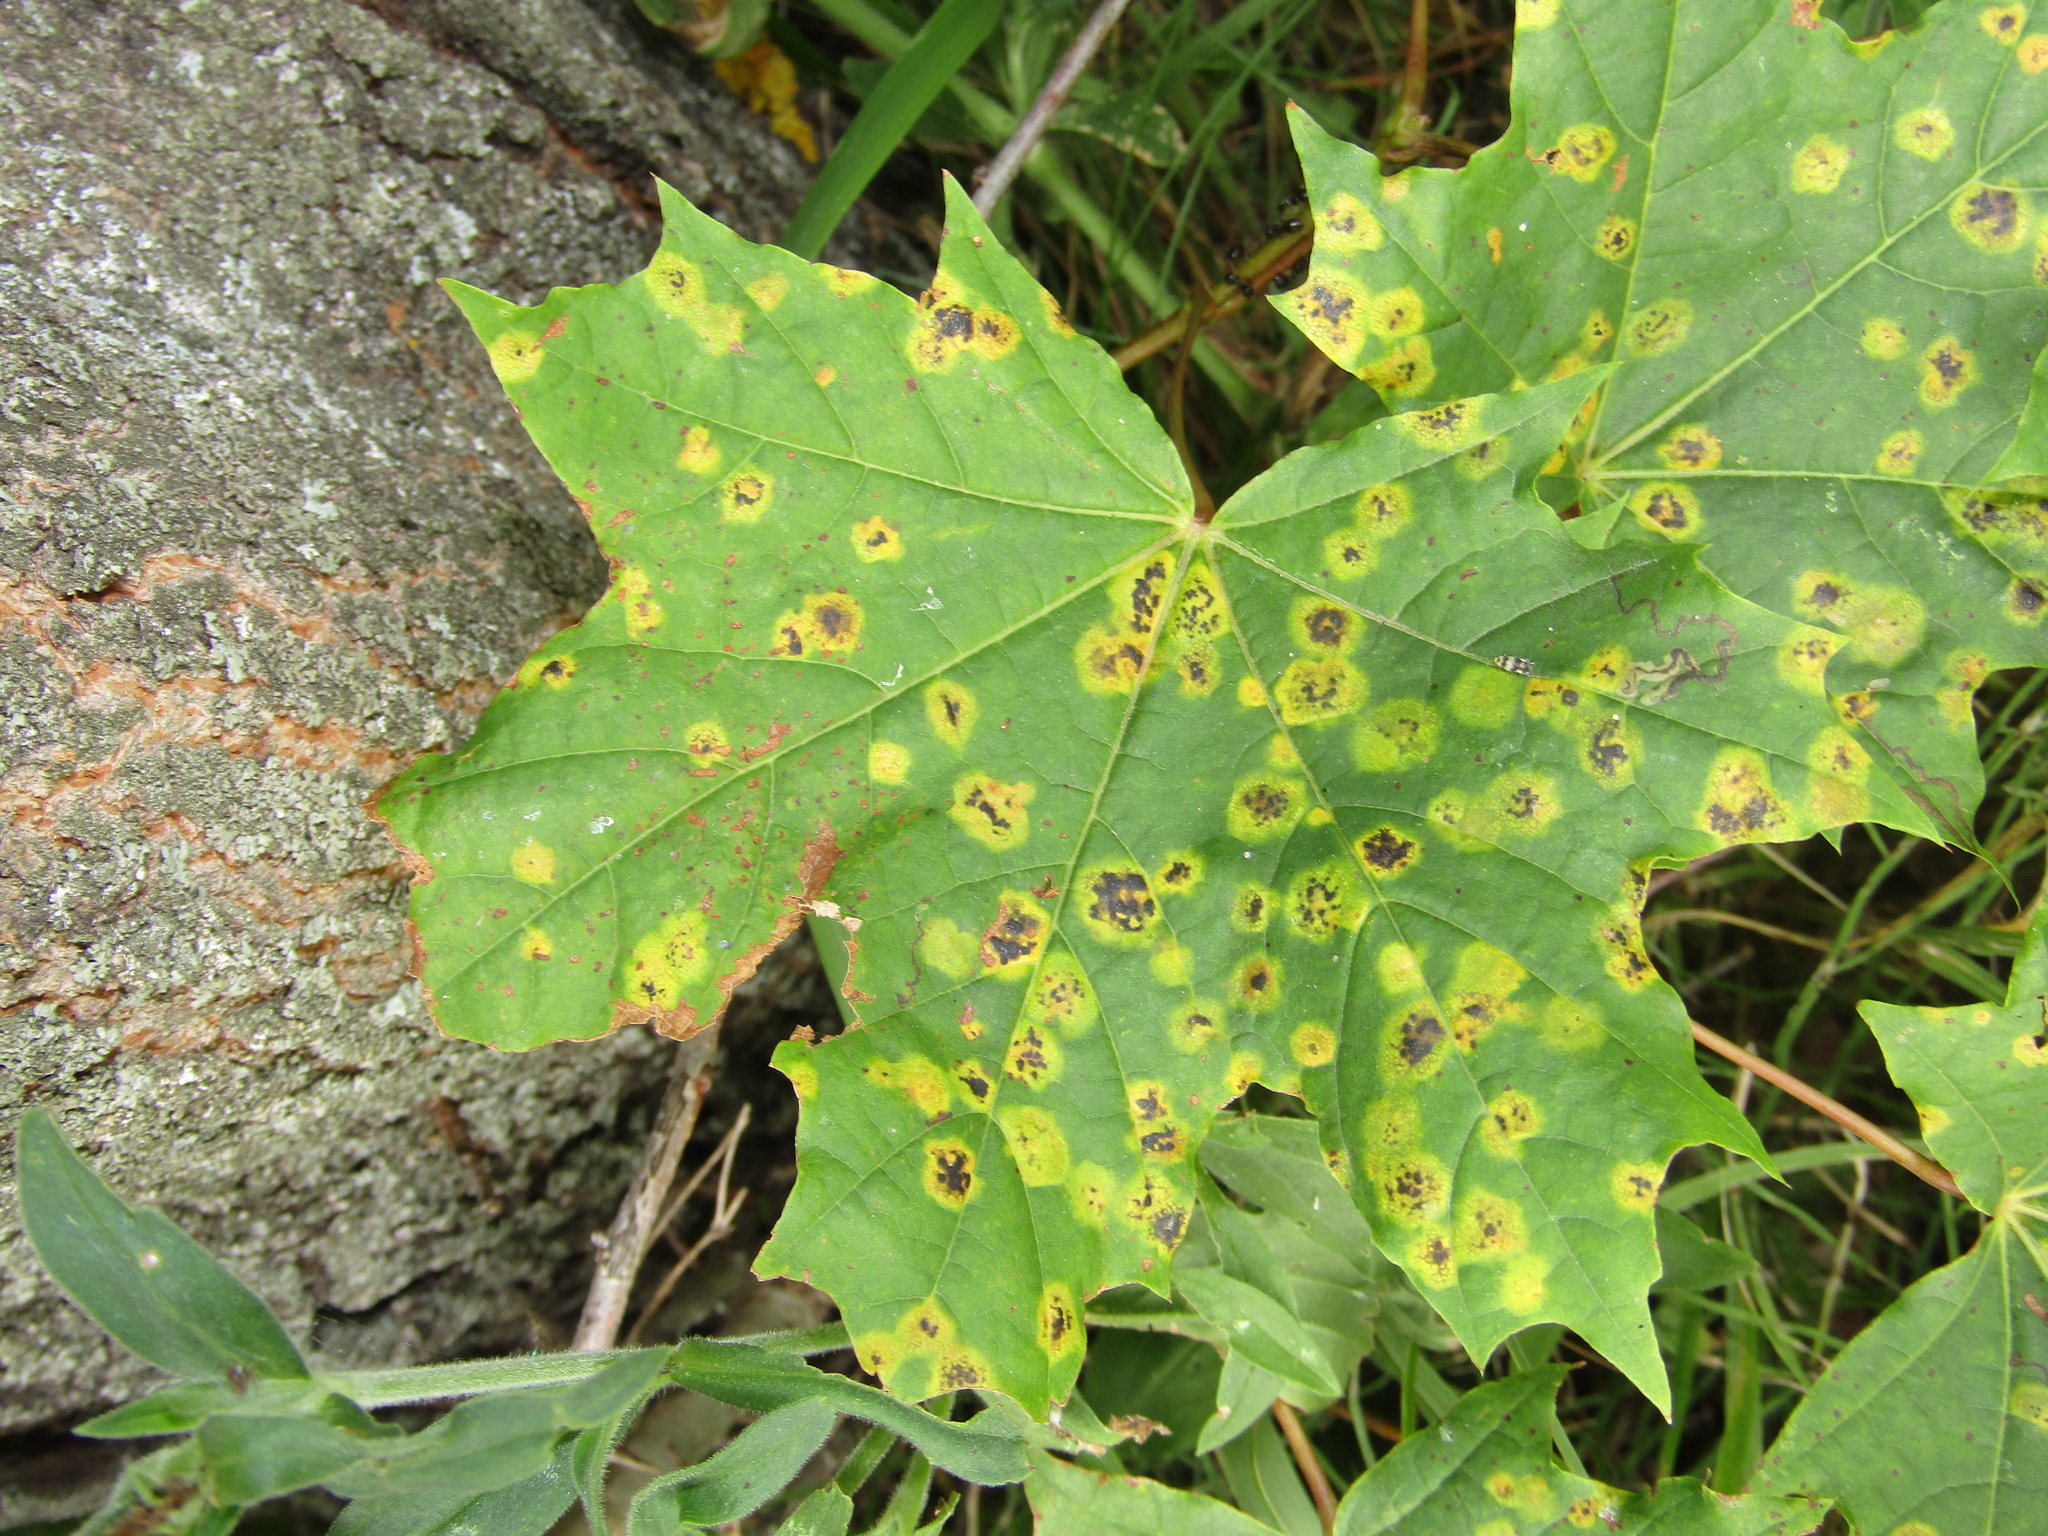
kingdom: Animalia
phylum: Arthropoda
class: Insecta
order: Lepidoptera
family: Nepticulidae
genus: Etainia
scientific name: Etainia sericopeza
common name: Leafminer
